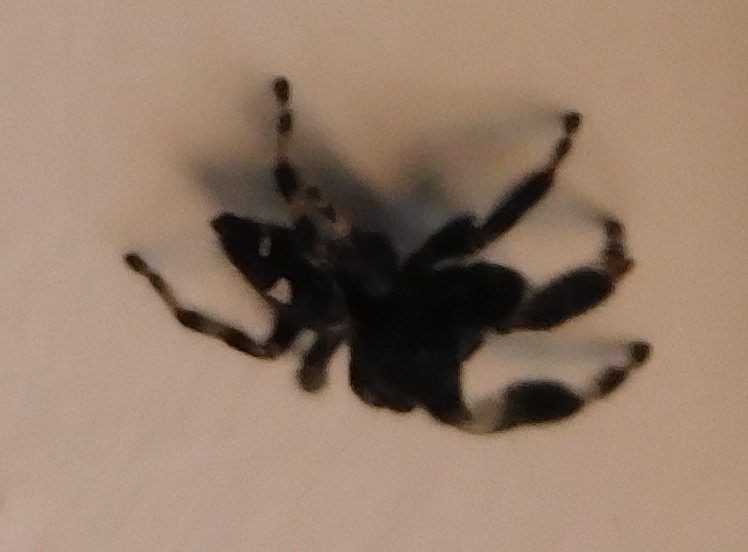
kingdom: Animalia
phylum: Arthropoda
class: Arachnida
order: Araneae
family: Salticidae
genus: Phidippus
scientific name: Phidippus audax
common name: Bold jumper
